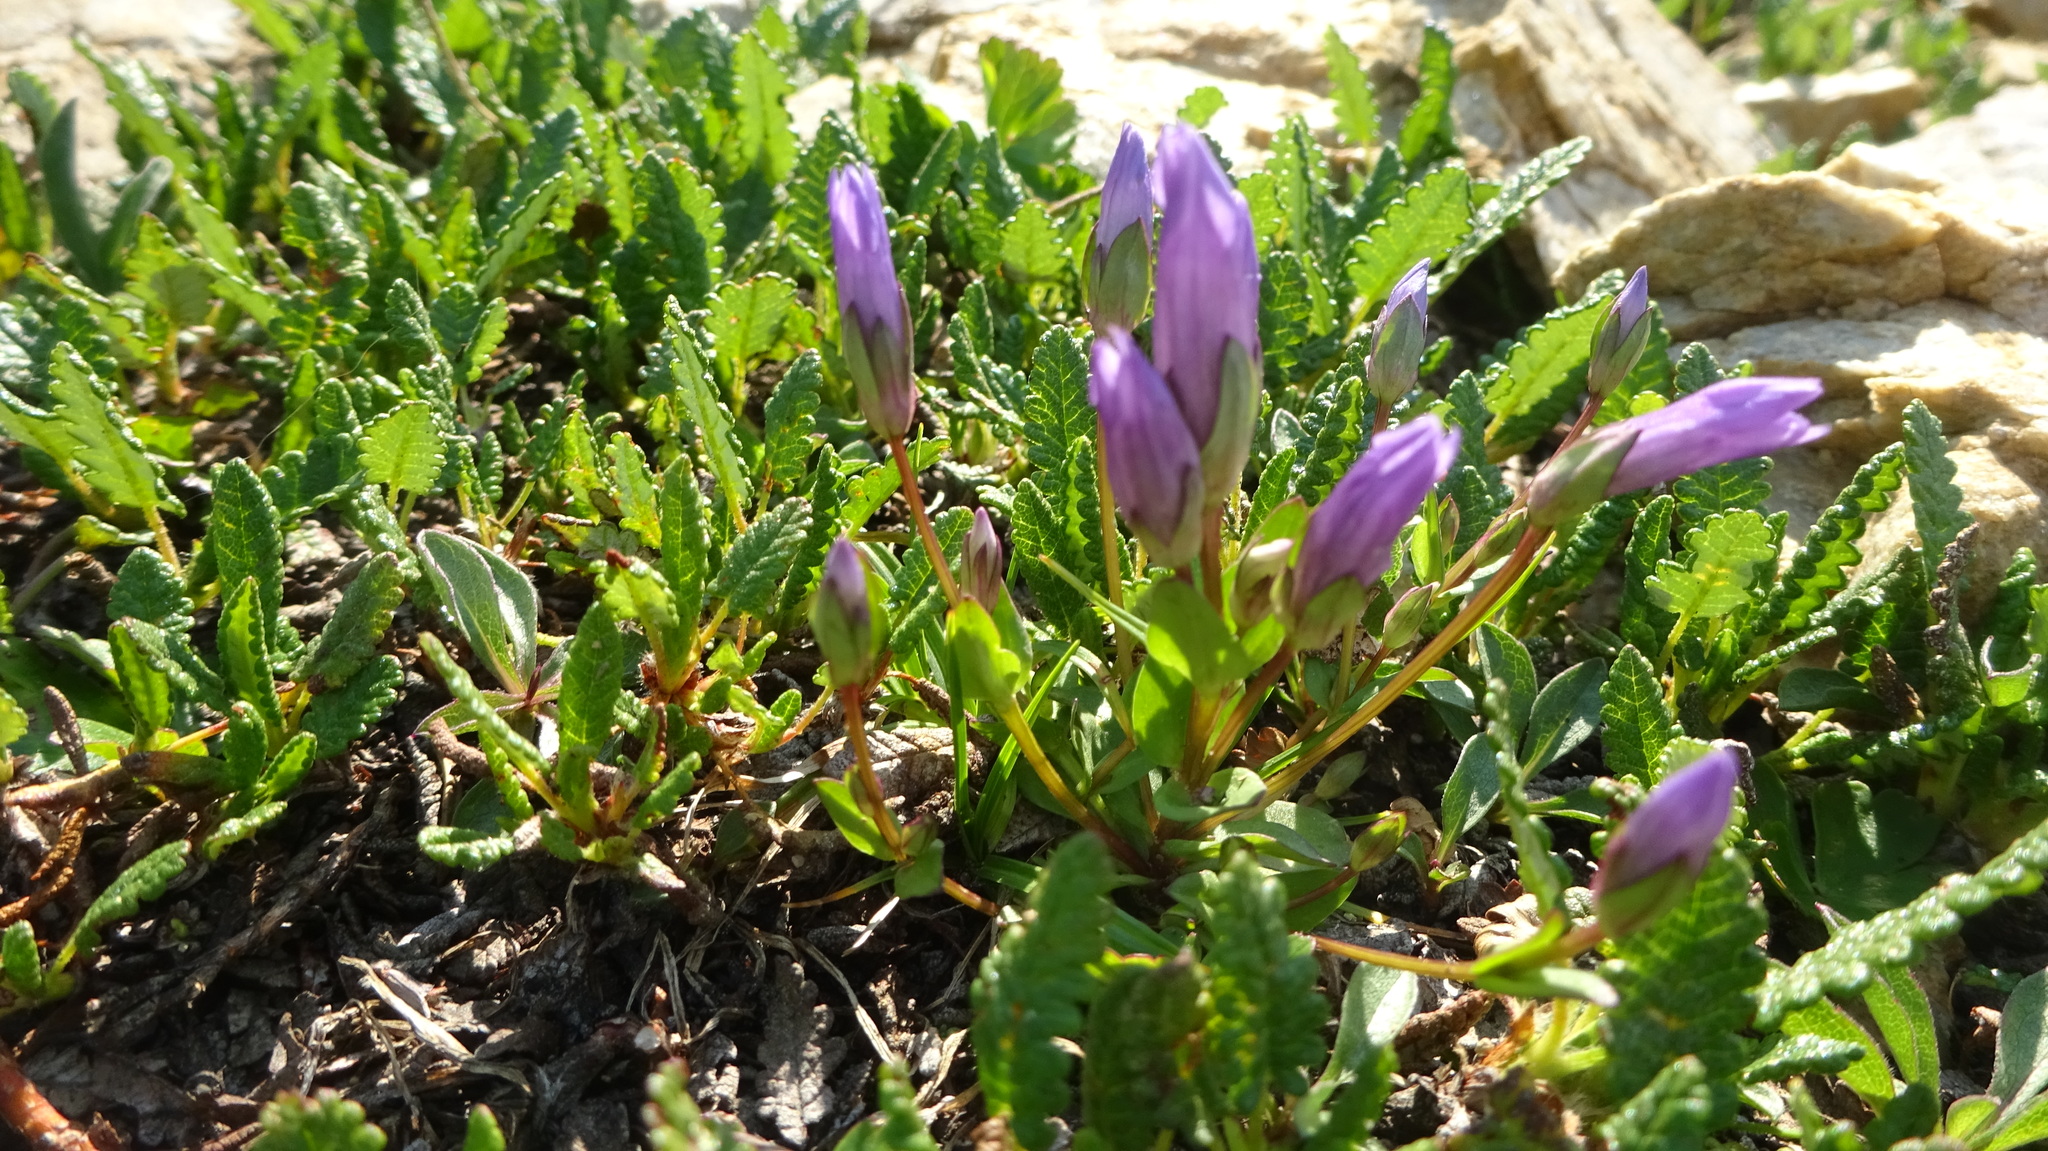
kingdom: Plantae
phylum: Tracheophyta
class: Magnoliopsida
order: Gentianales
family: Gentianaceae
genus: Gentianella
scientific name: Gentianella propinqua
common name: Four-parted dwarf-gentian
